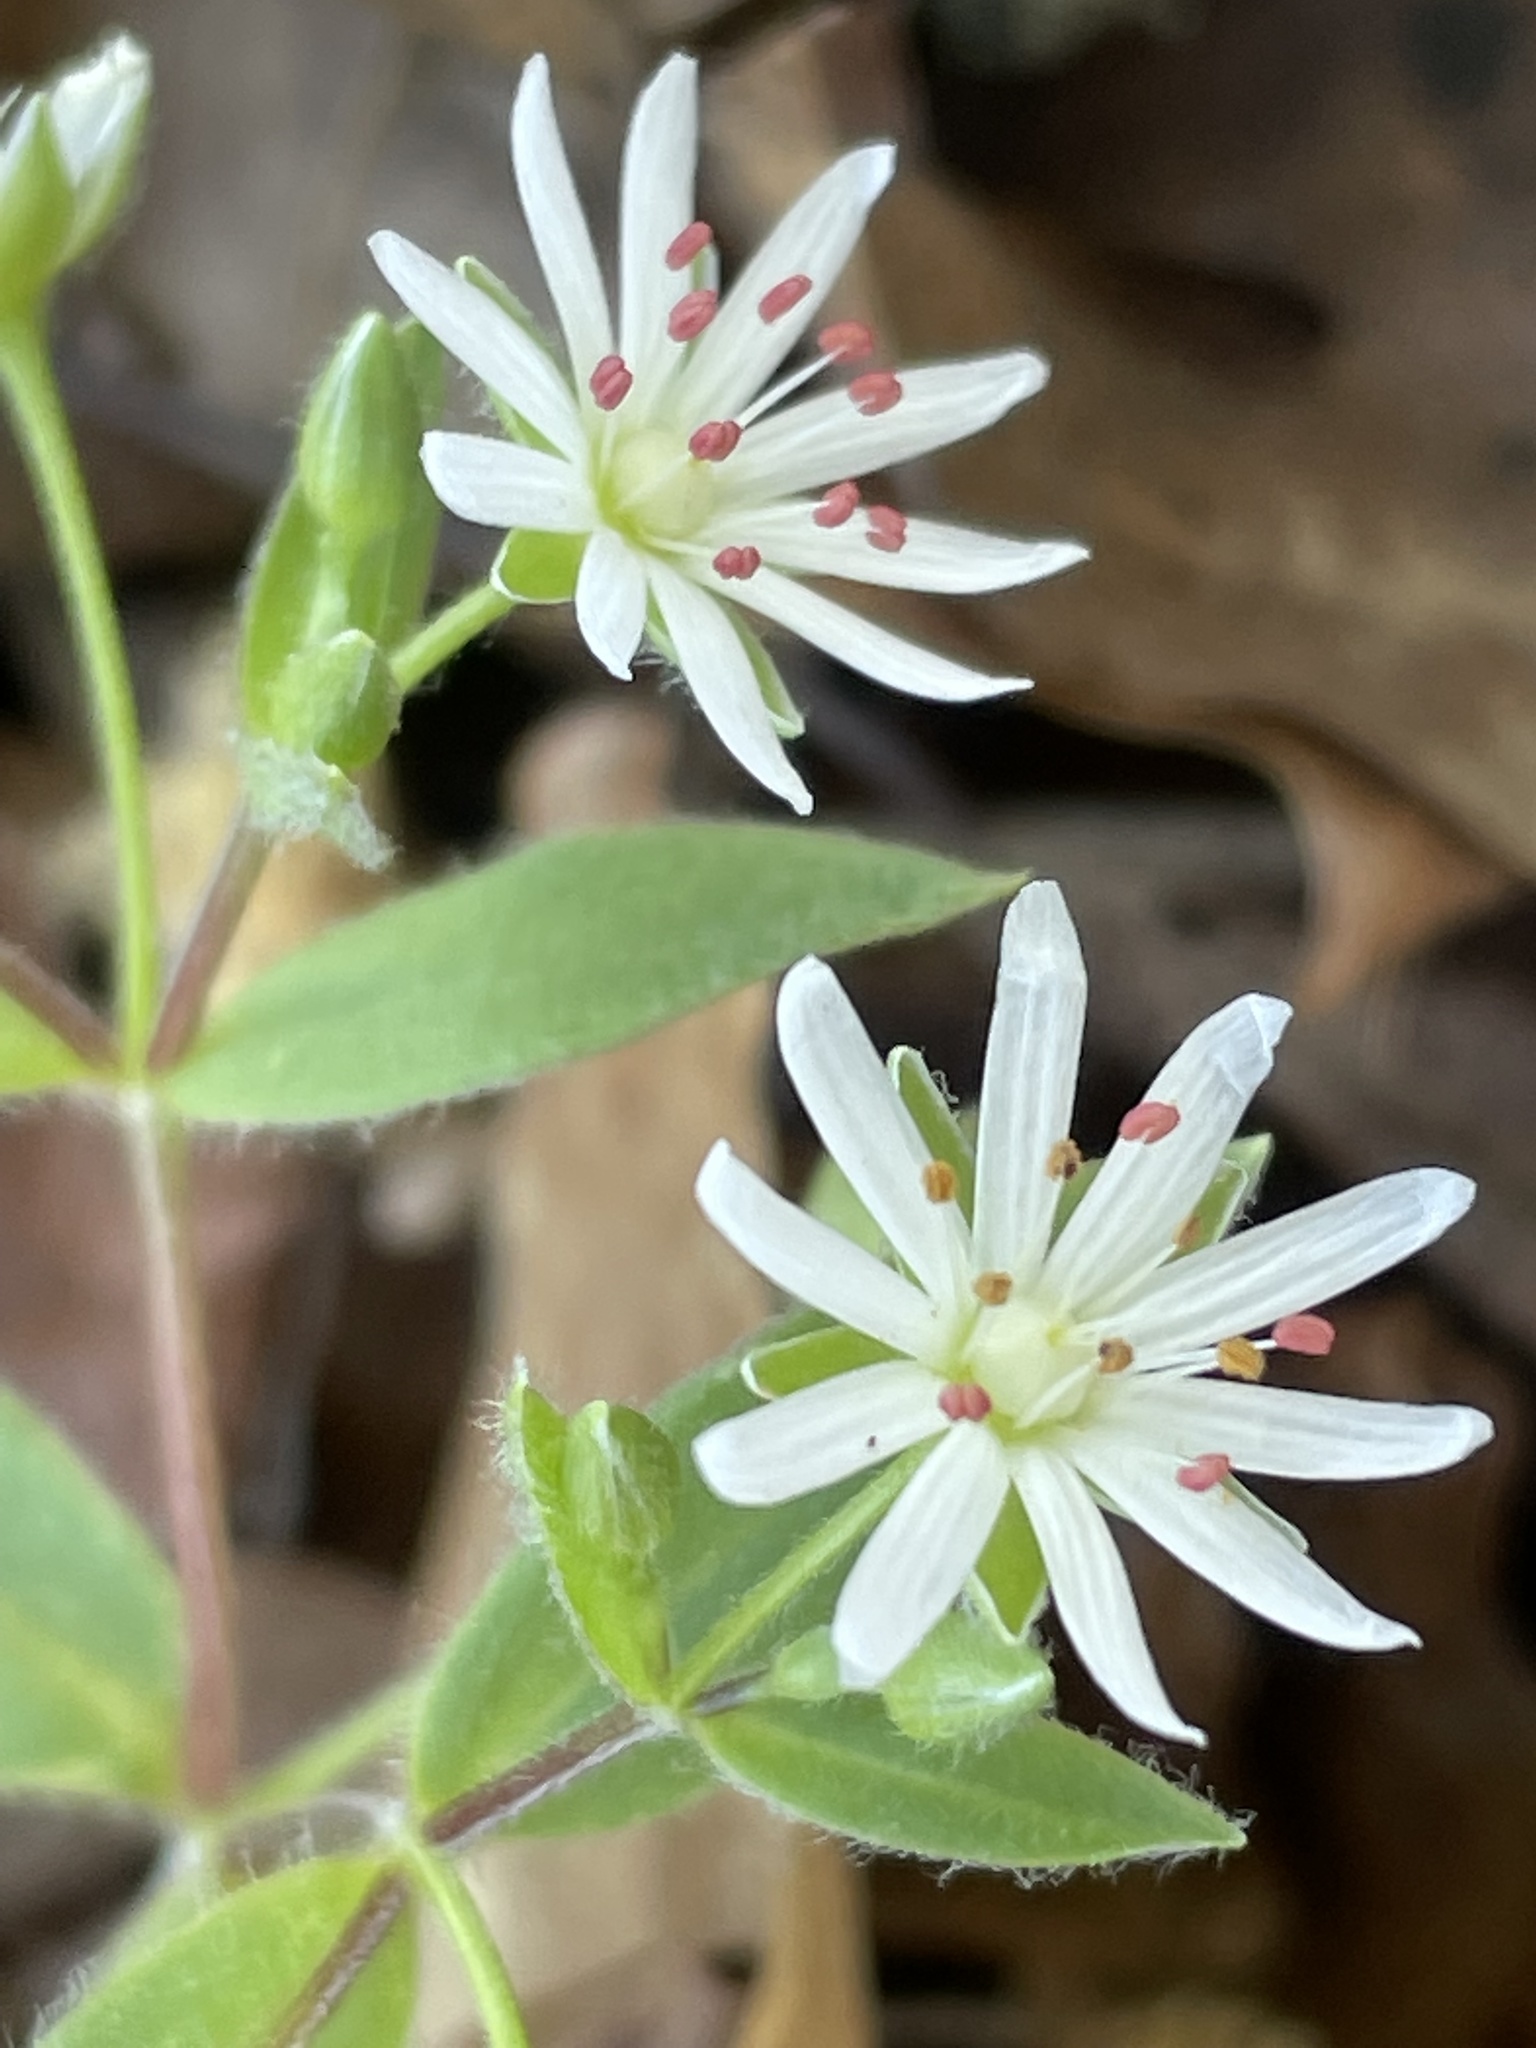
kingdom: Plantae
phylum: Tracheophyta
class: Magnoliopsida
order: Caryophyllales
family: Caryophyllaceae
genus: Stellaria
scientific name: Stellaria pubera
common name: Star chickweed
